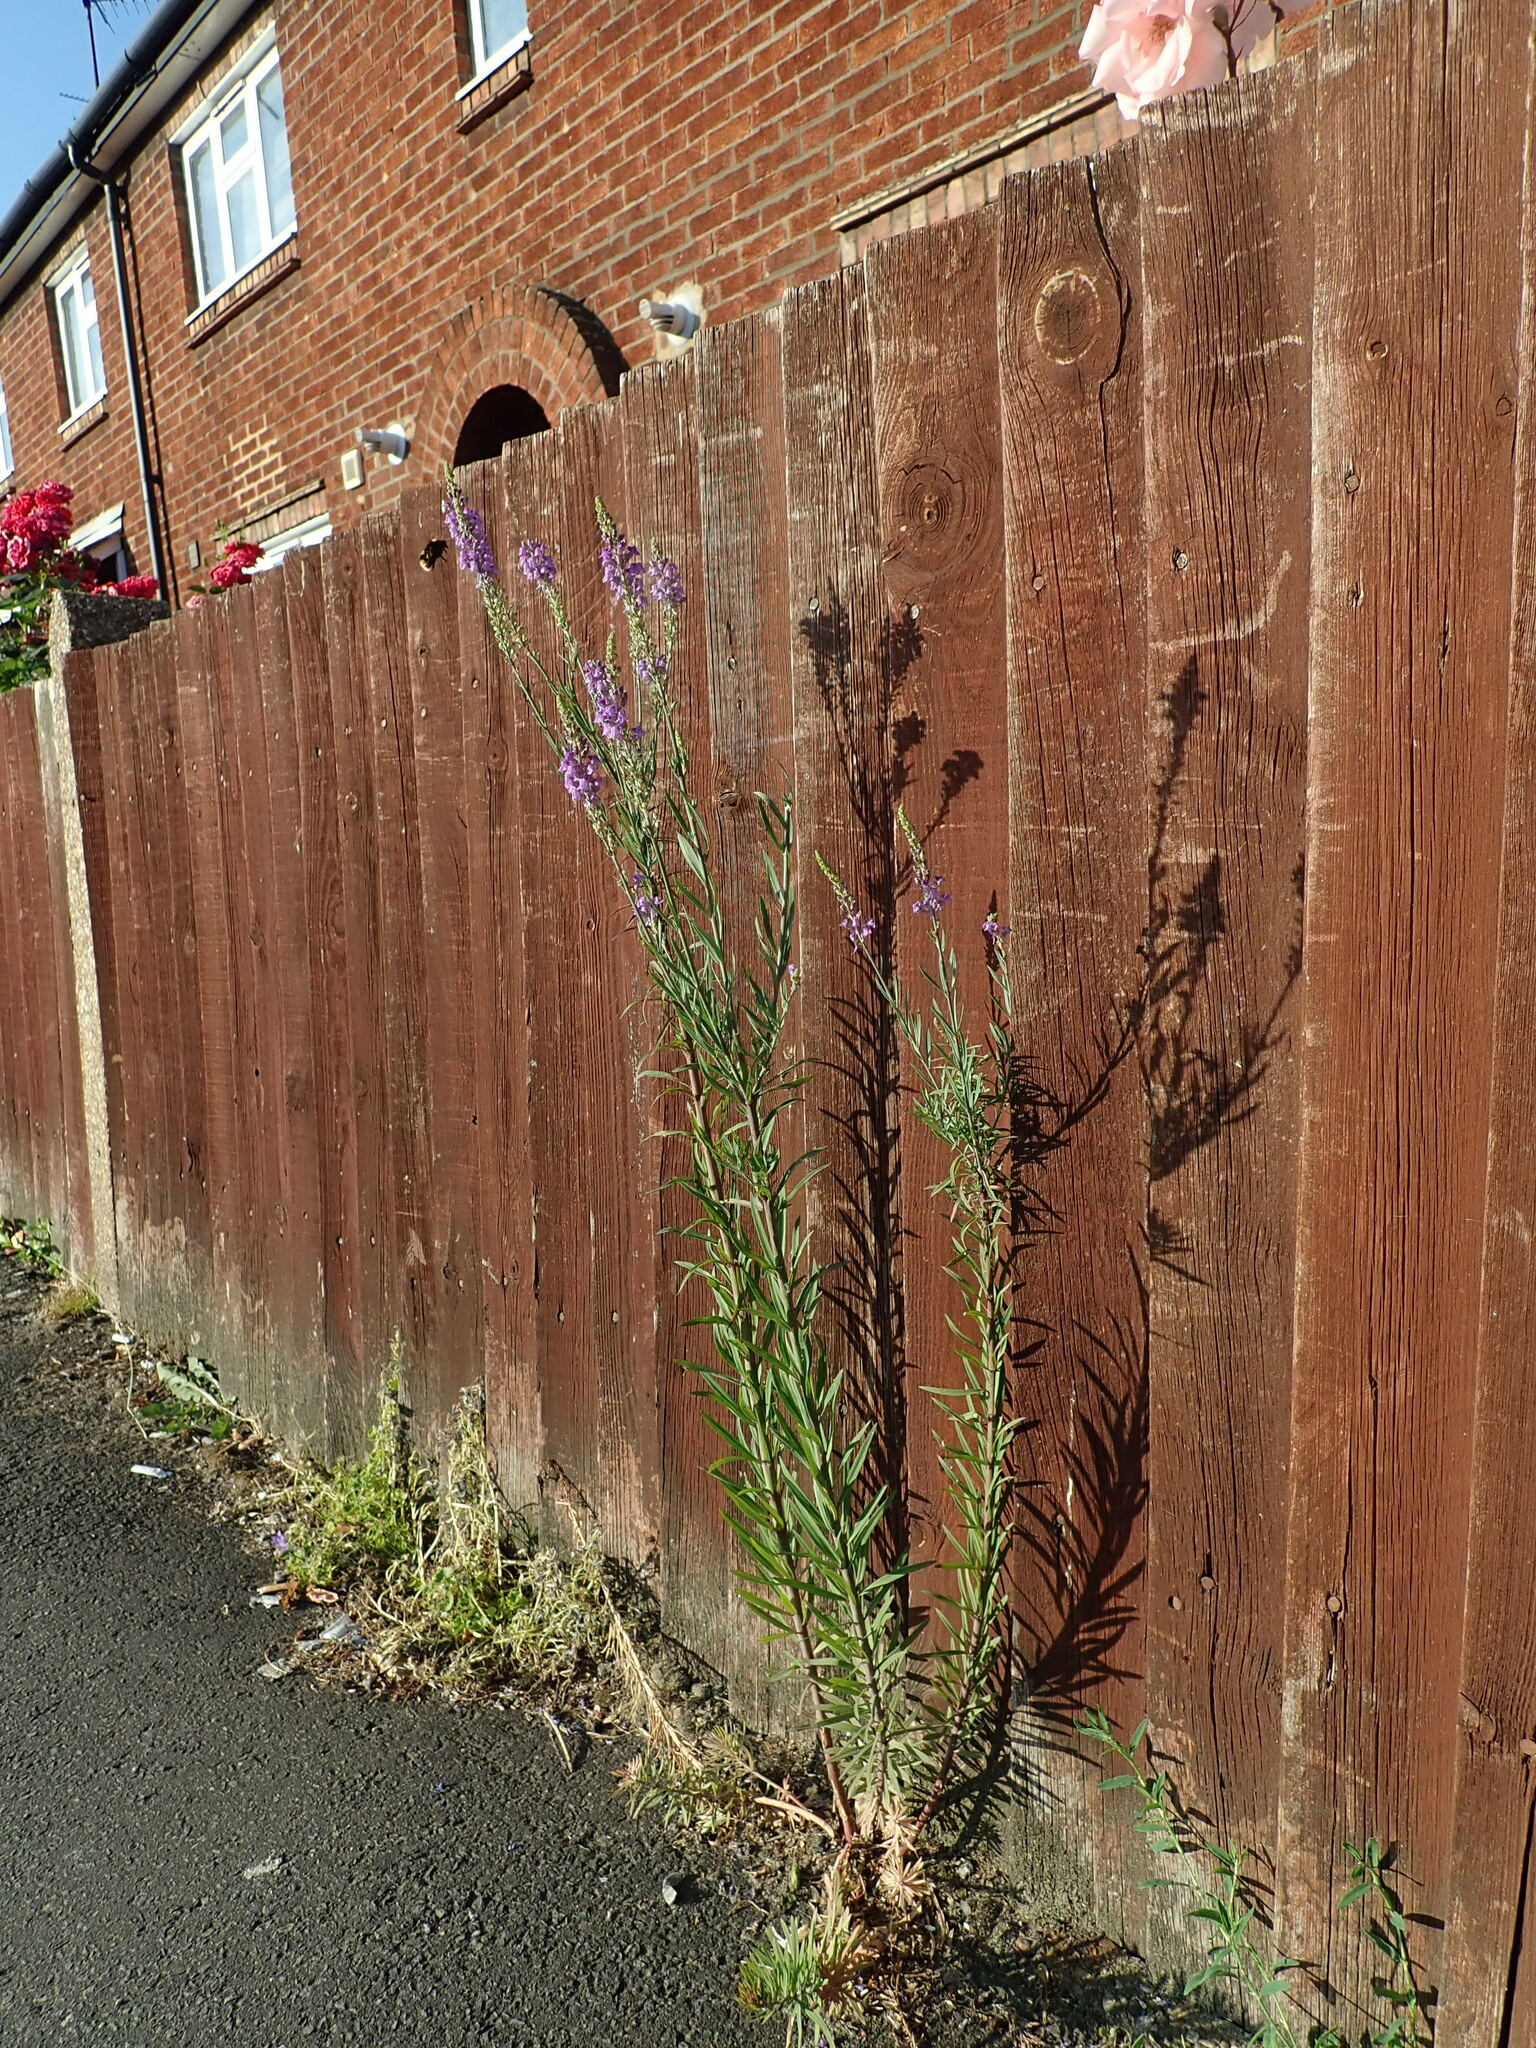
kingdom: Plantae
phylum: Tracheophyta
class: Magnoliopsida
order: Lamiales
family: Plantaginaceae
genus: Linaria
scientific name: Linaria purpurea
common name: Purple toadflax
